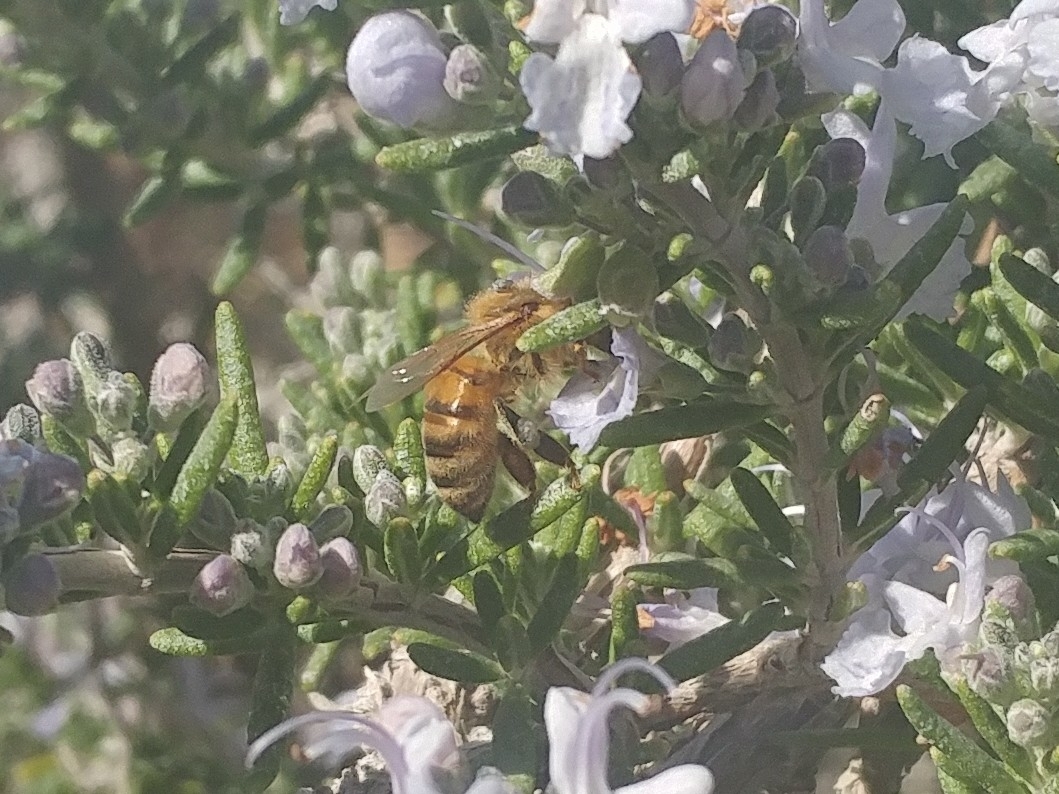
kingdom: Animalia
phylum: Arthropoda
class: Insecta
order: Hymenoptera
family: Apidae
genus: Apis
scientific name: Apis mellifera
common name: Honey bee
